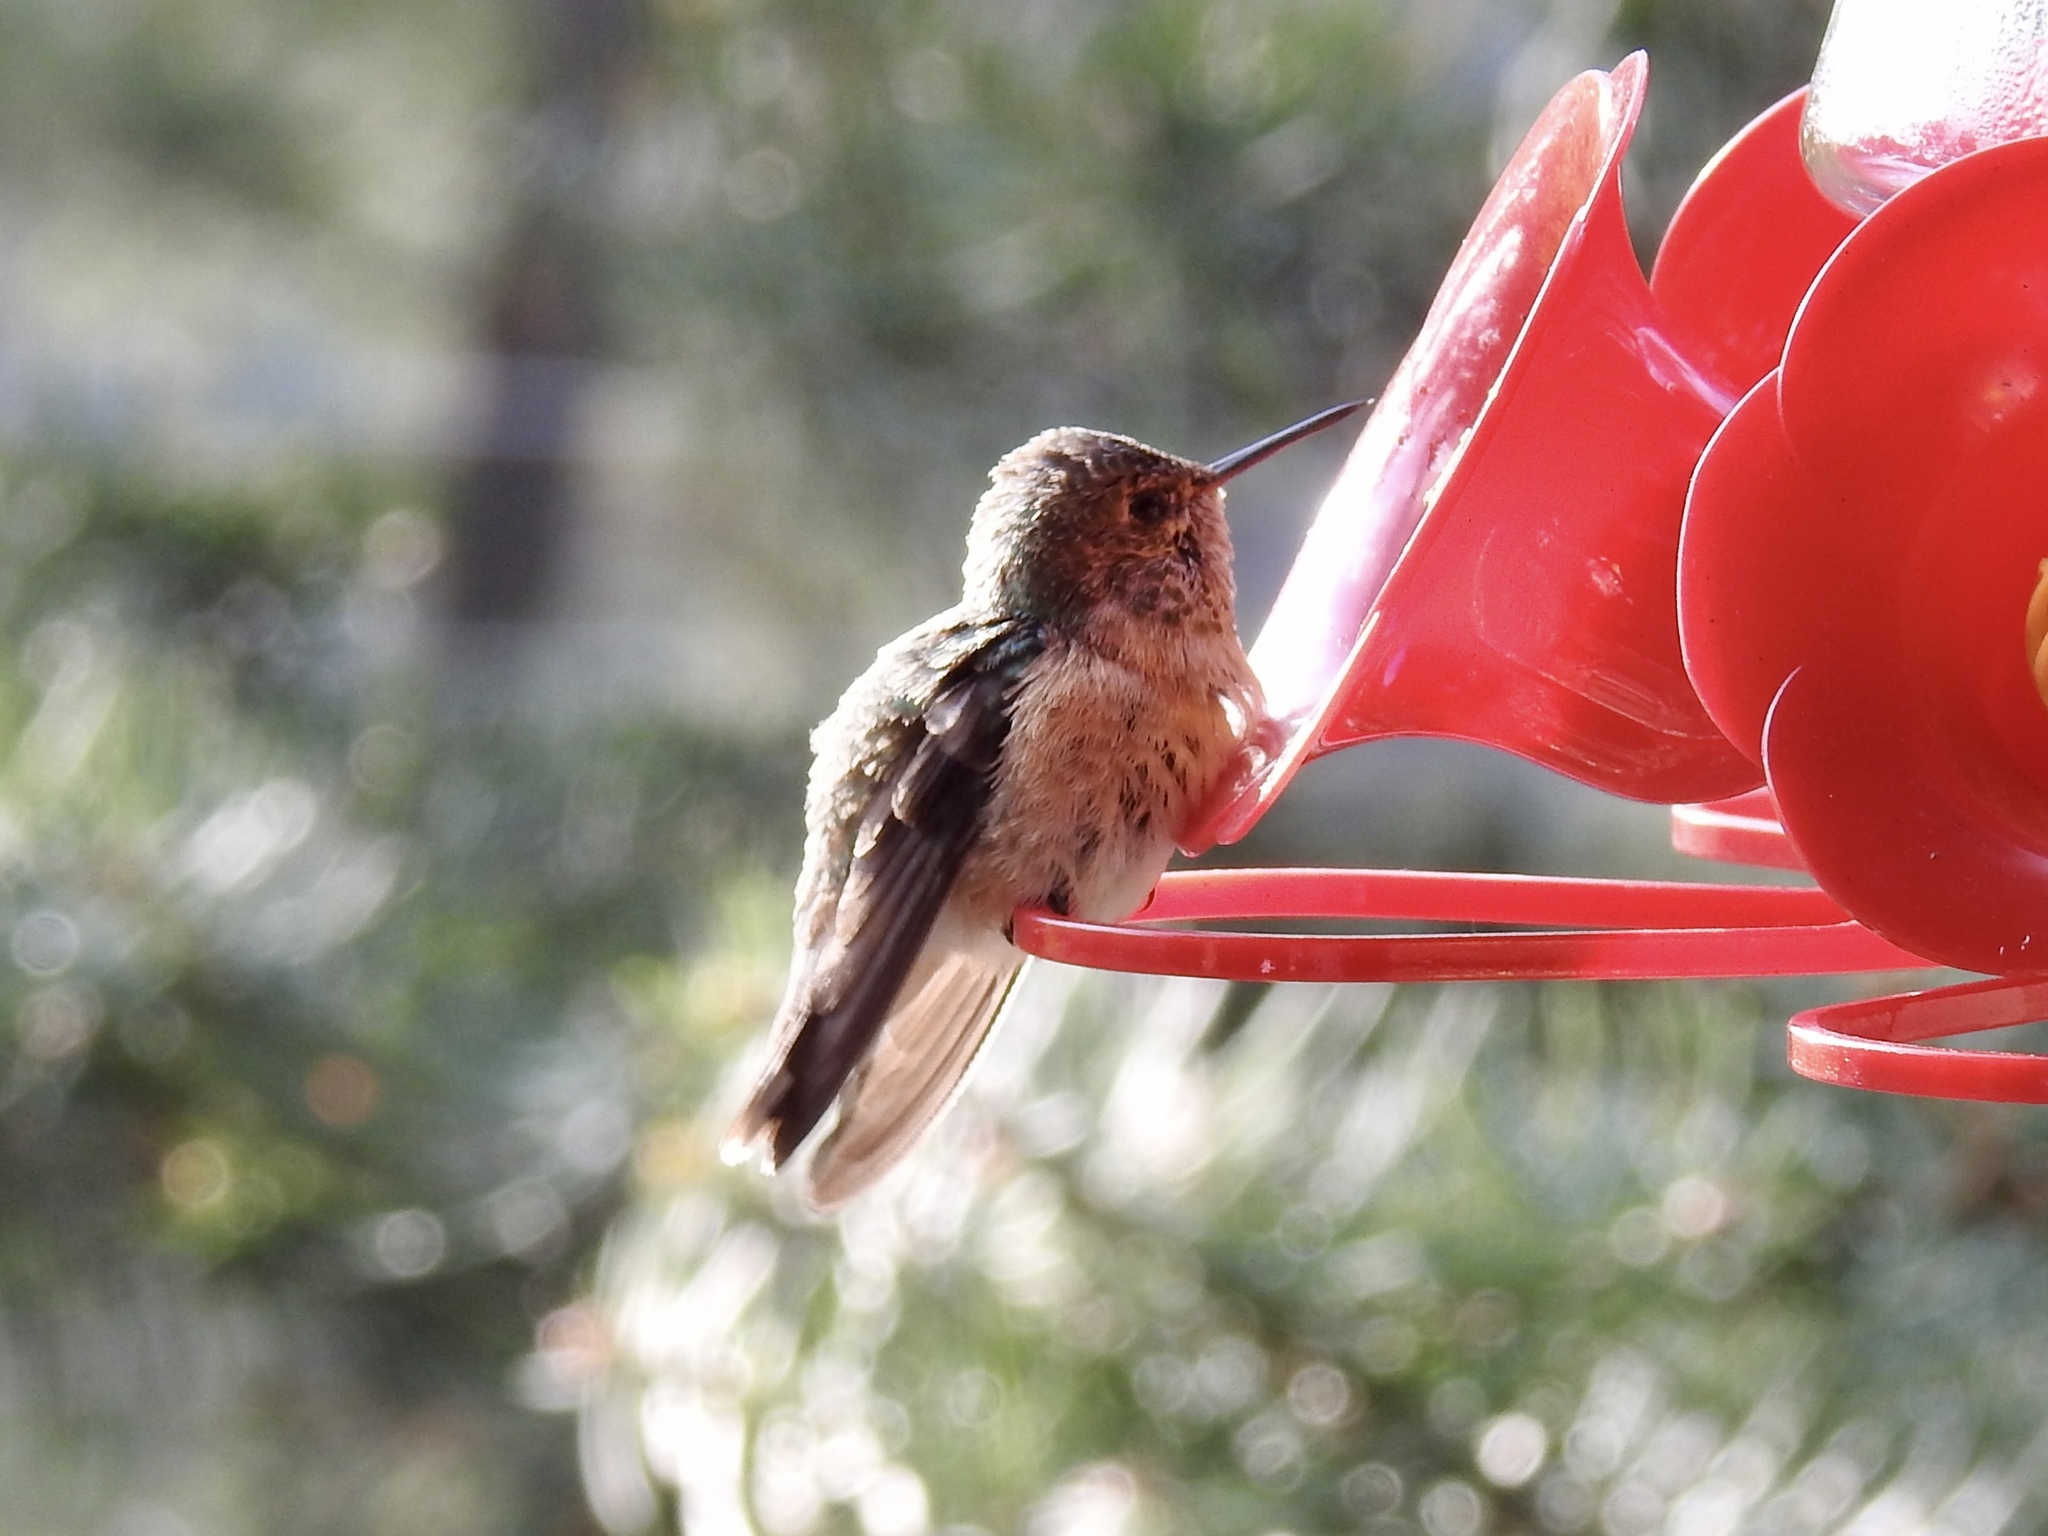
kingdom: Animalia
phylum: Chordata
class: Aves
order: Apodiformes
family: Trochilidae
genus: Selasphorus
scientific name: Selasphorus platycercus
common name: Broad-tailed hummingbird
